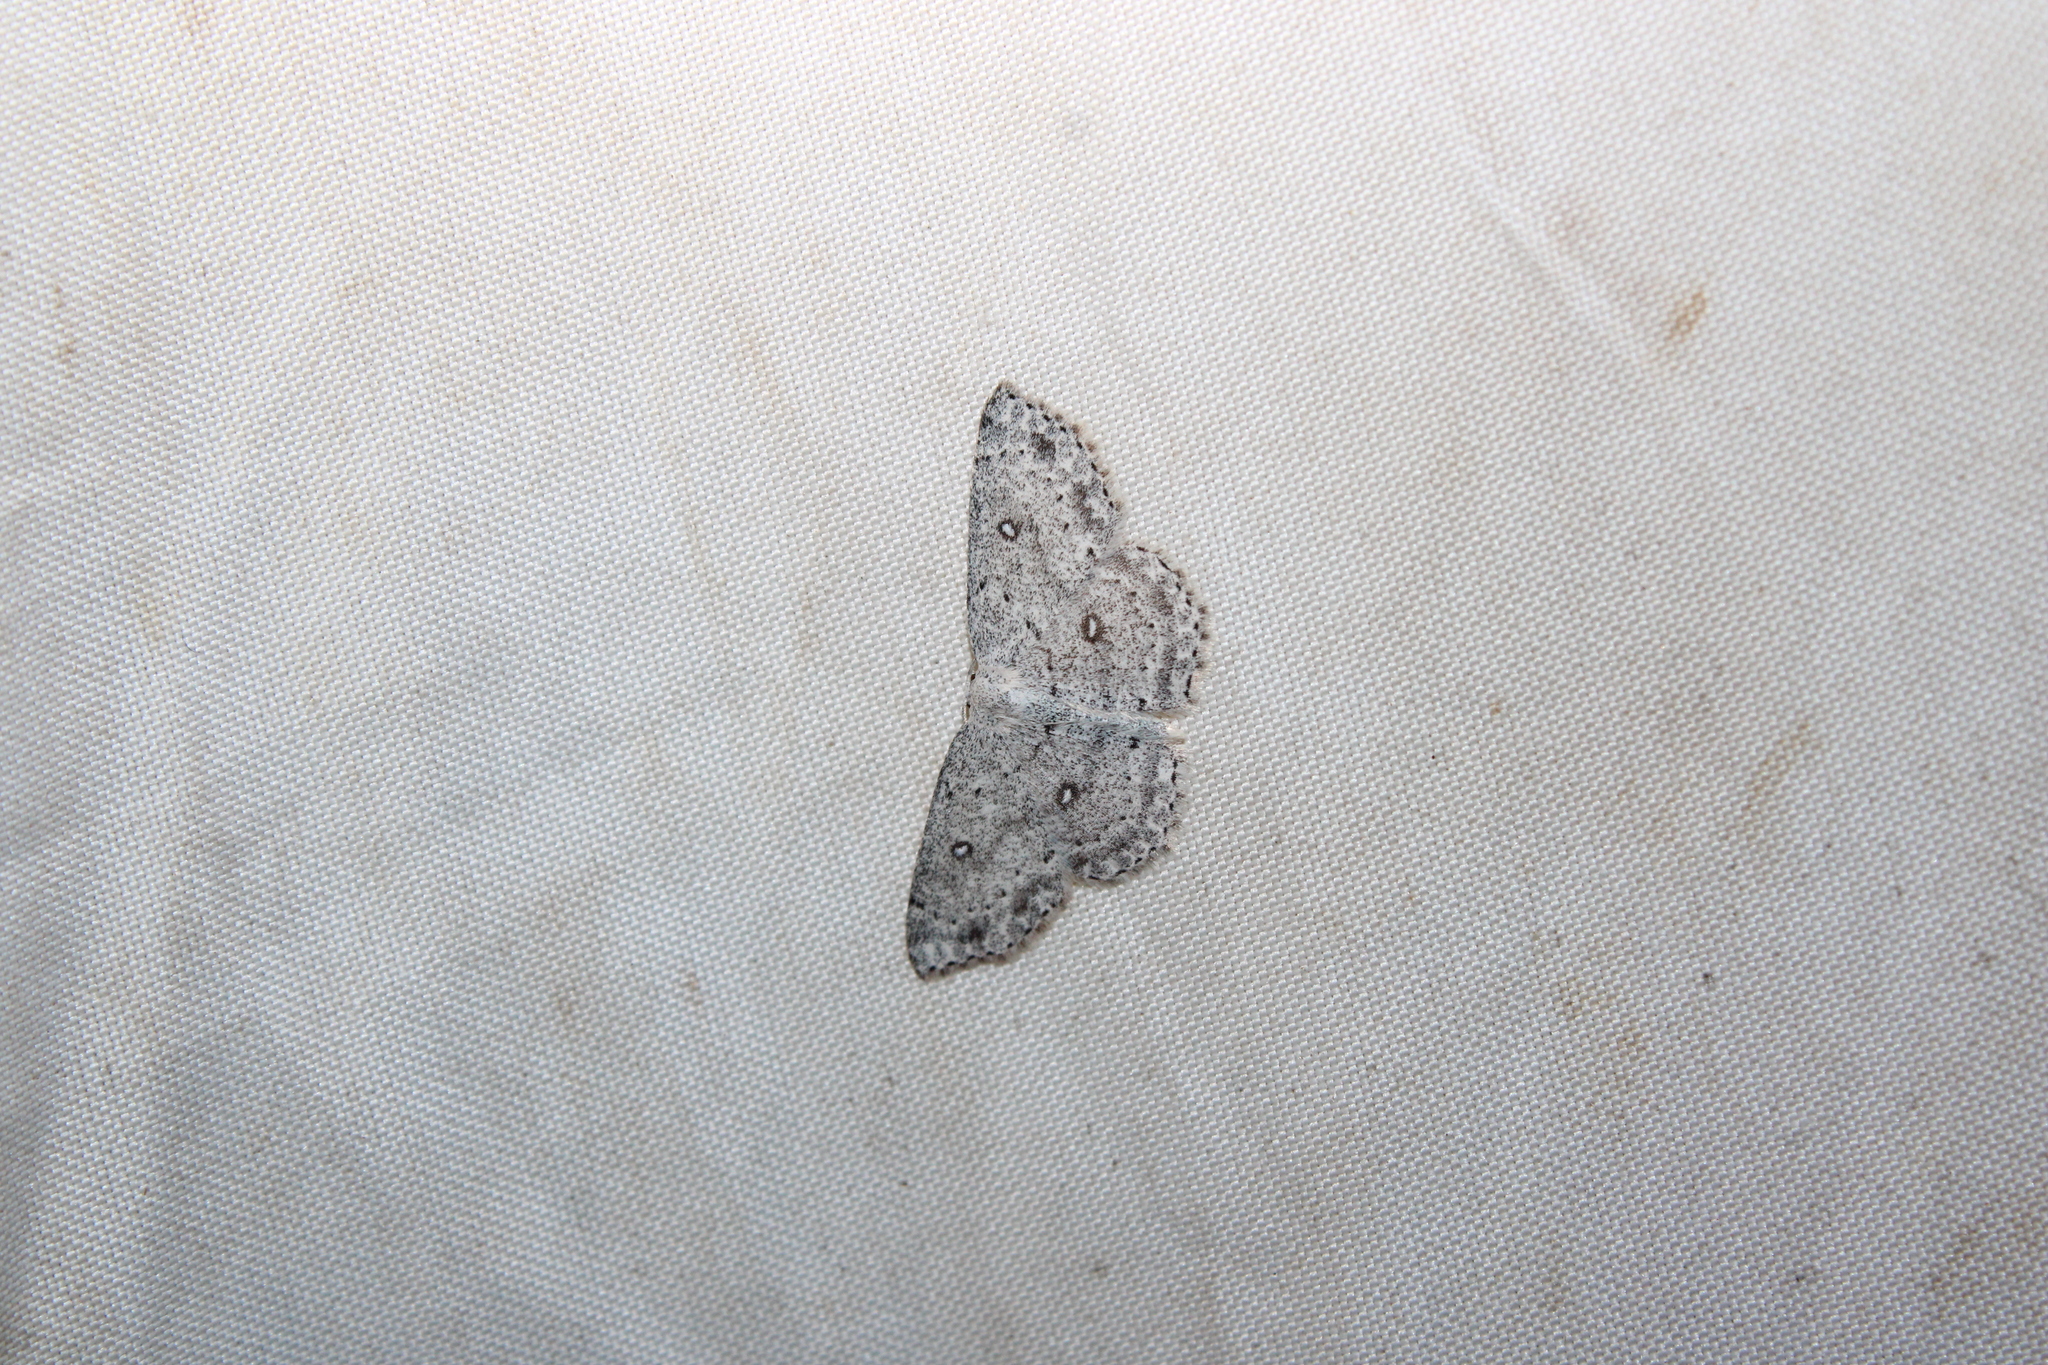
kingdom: Animalia
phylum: Arthropoda
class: Insecta
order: Lepidoptera
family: Geometridae
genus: Cyclophora
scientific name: Cyclophora pendulinaria
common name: Sweet fern geometer
